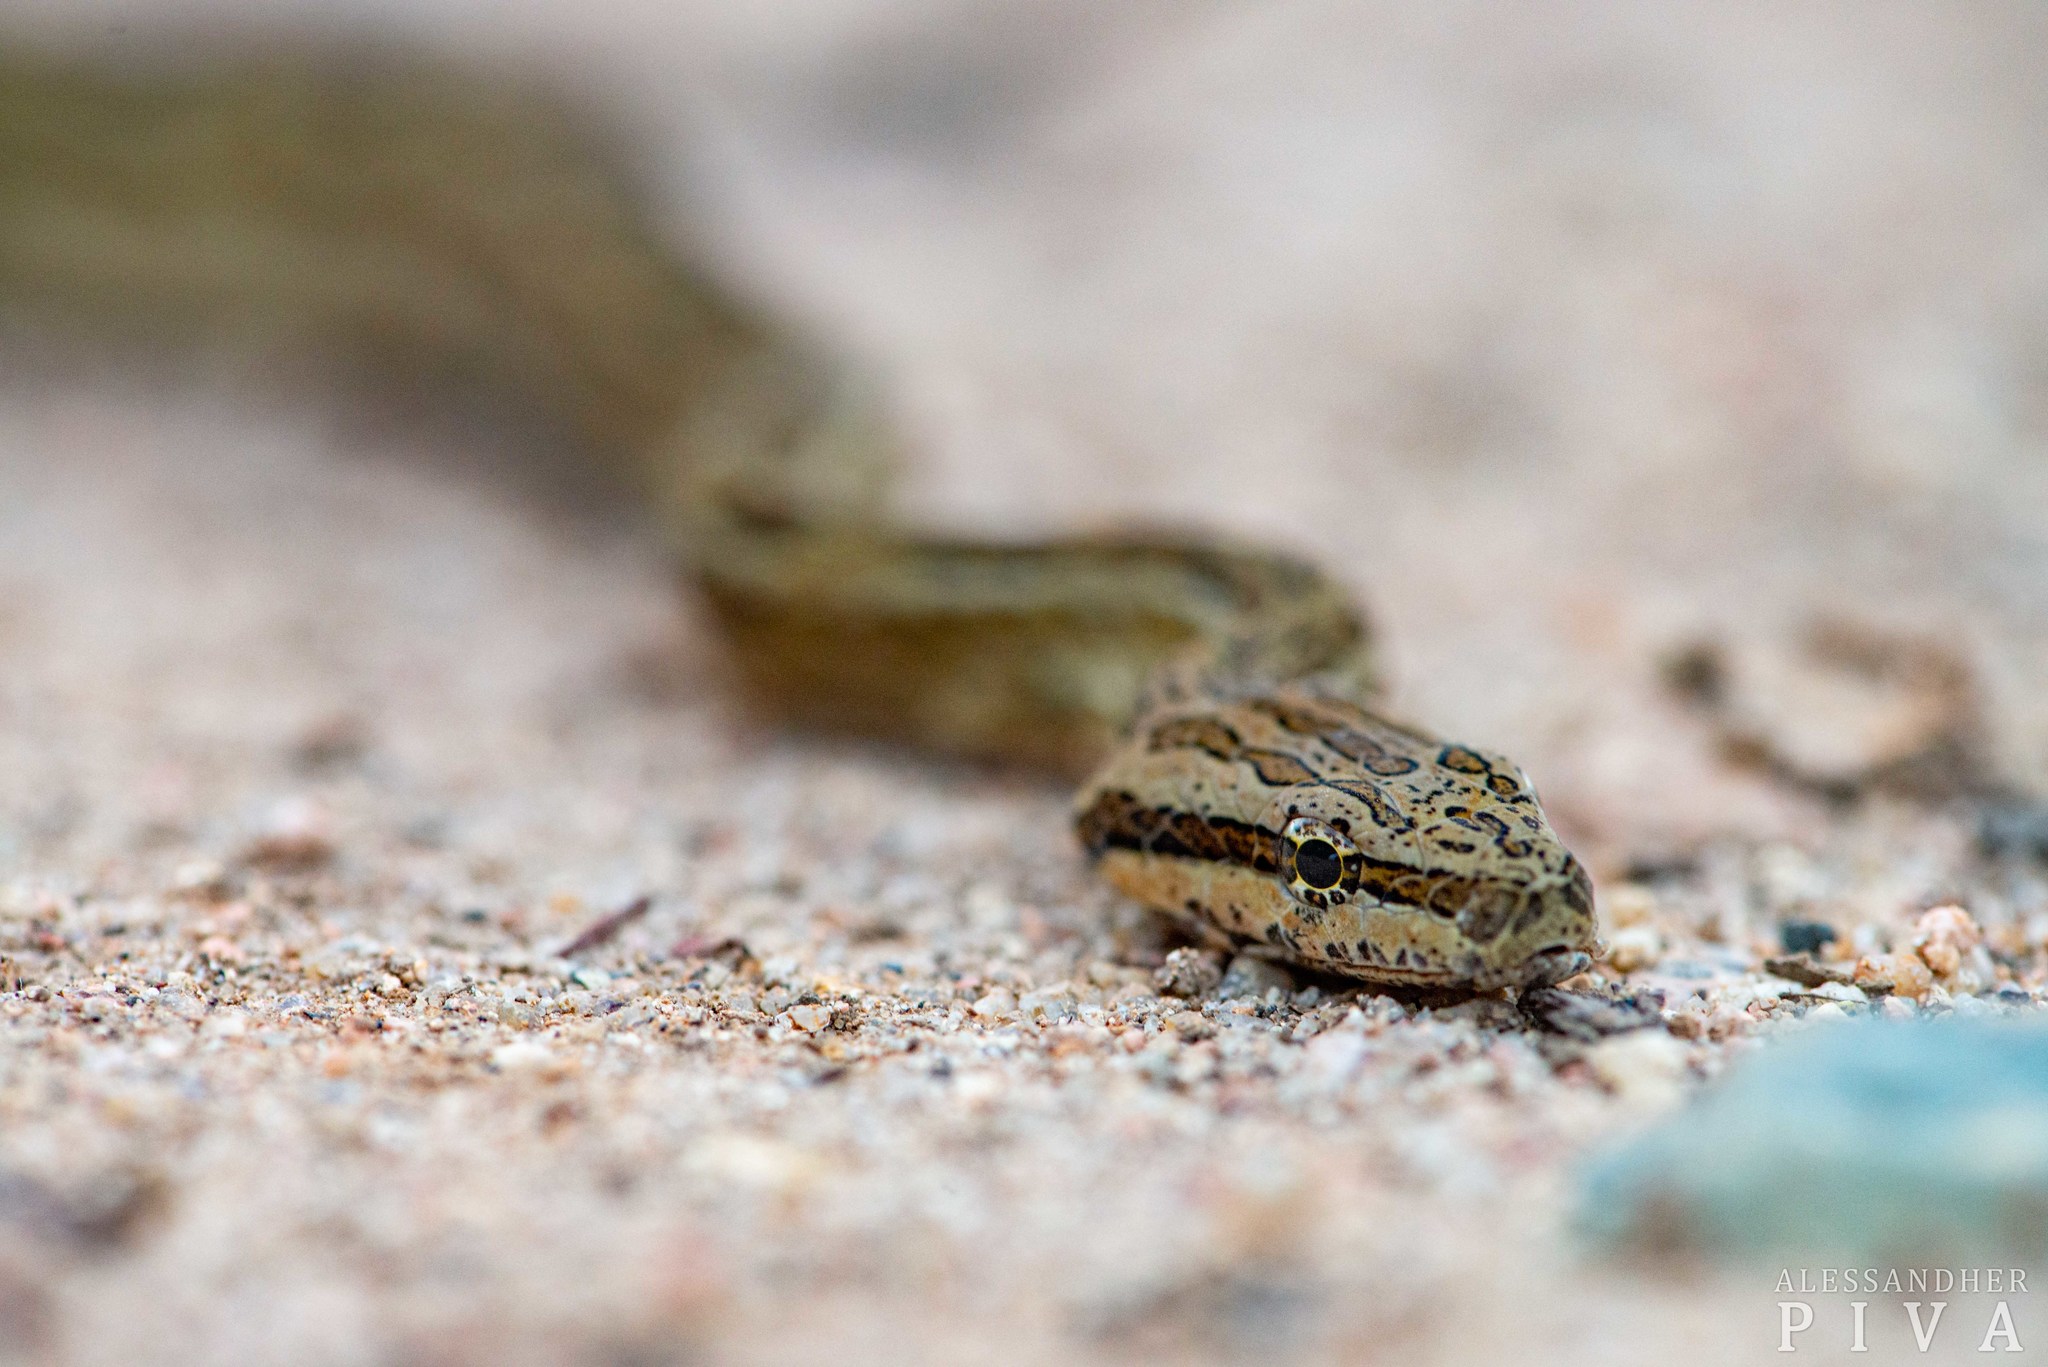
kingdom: Animalia
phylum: Chordata
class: Squamata
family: Colubridae
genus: Tropidodryas
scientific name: Tropidodryas striaticeps
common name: Jiboinha
